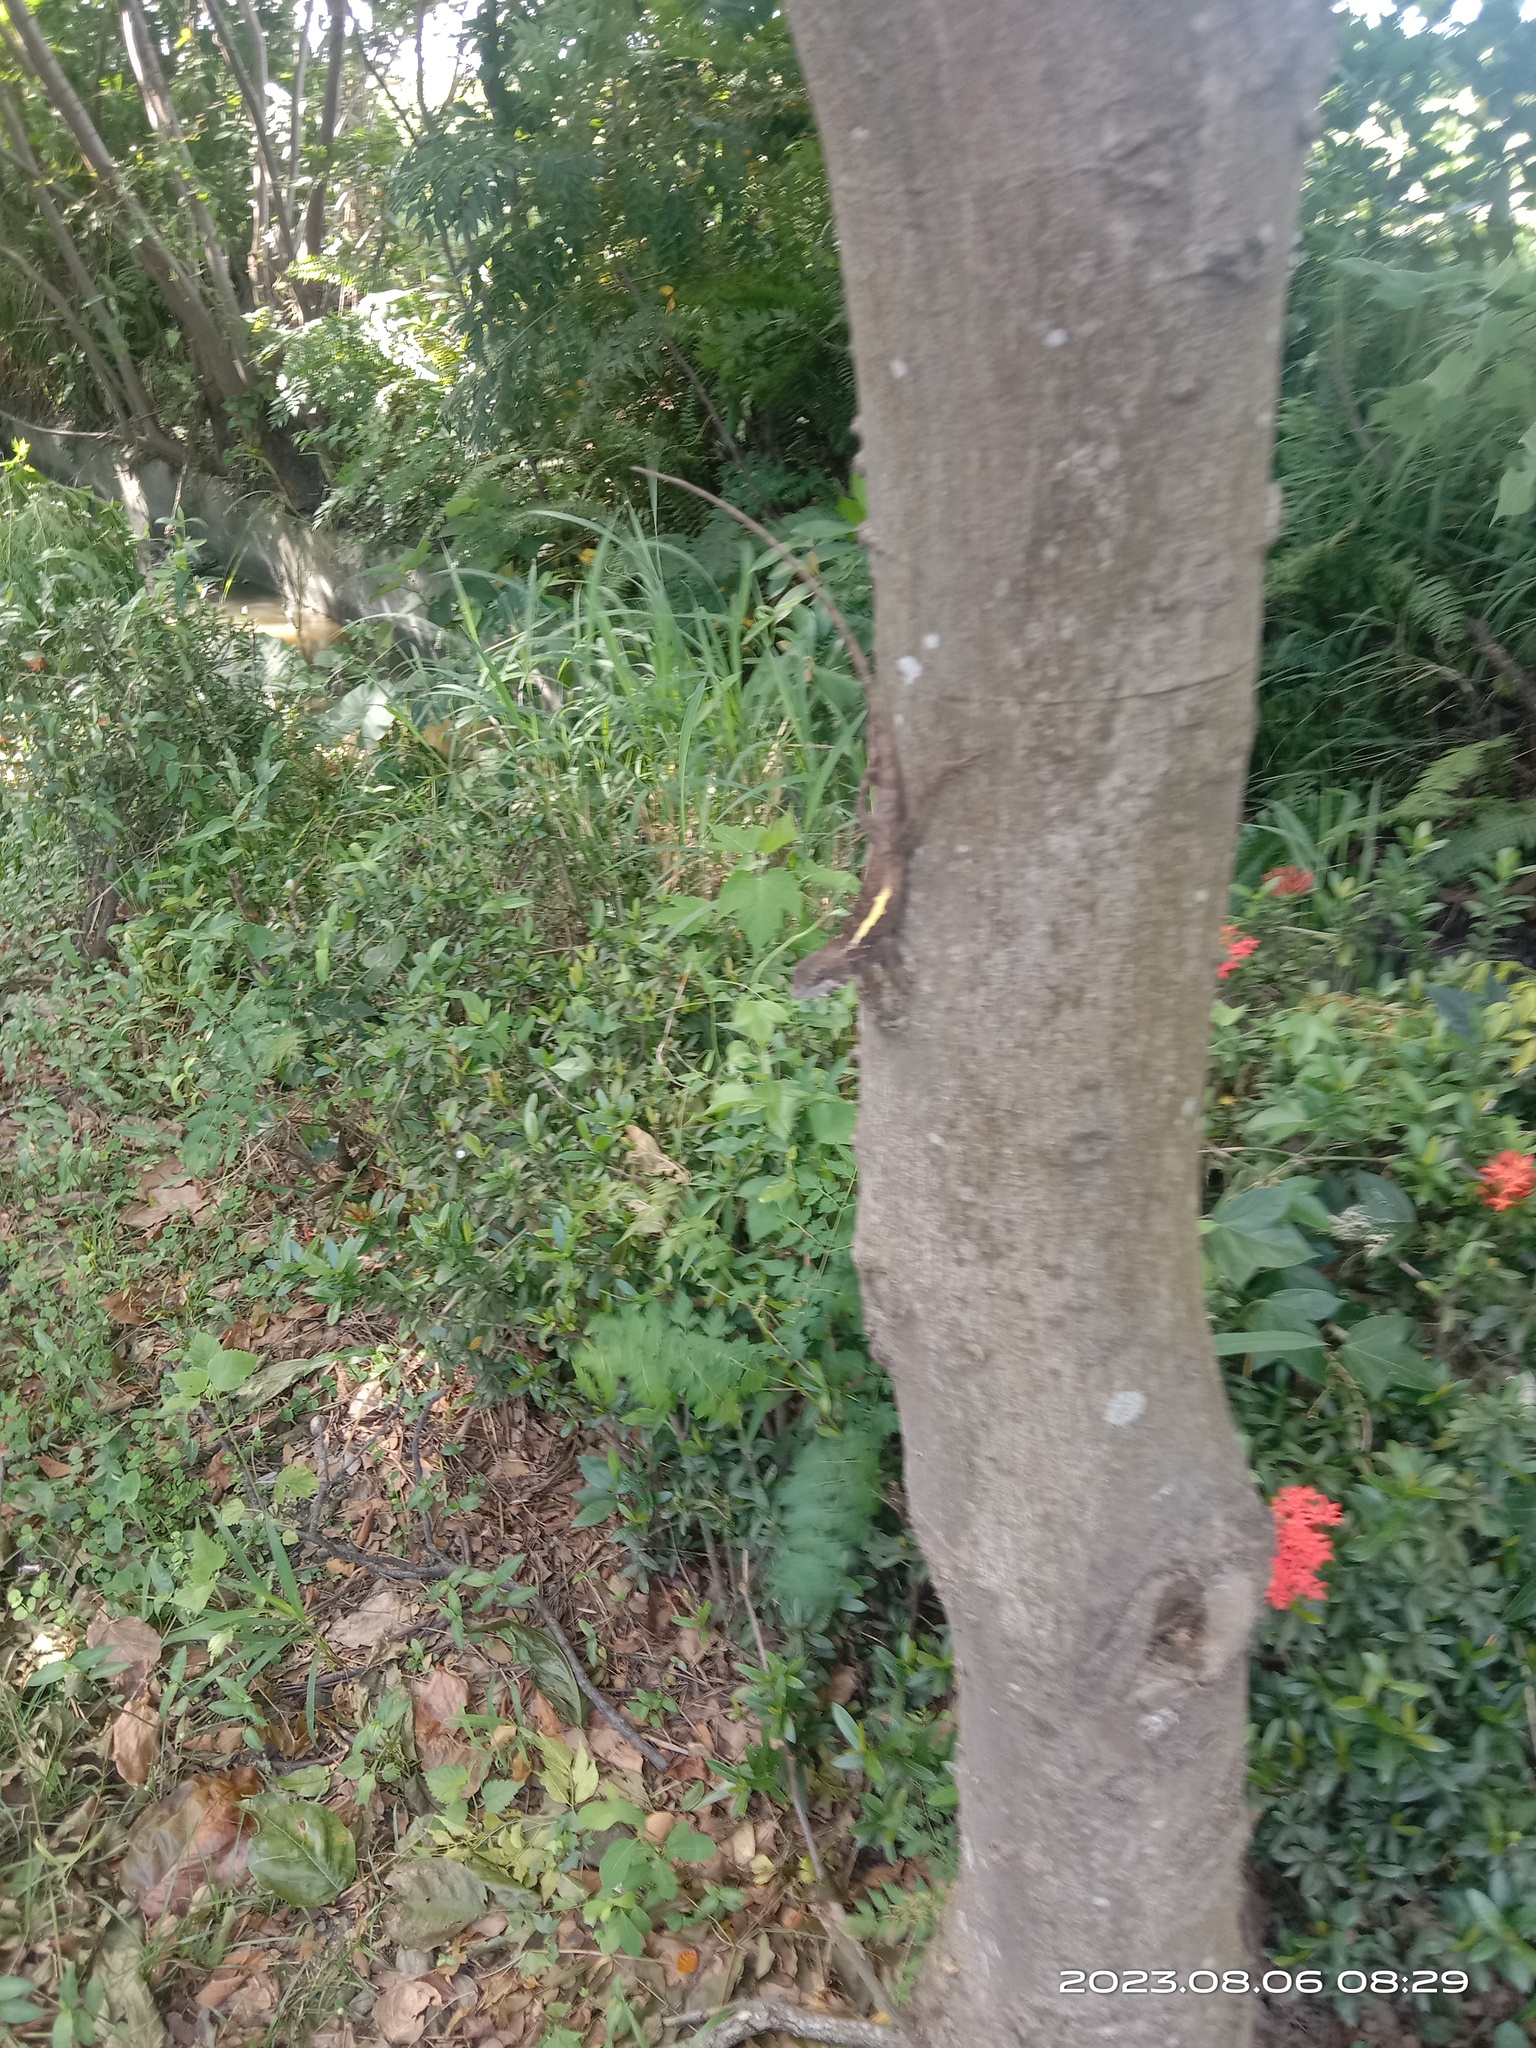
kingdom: Animalia
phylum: Chordata
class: Squamata
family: Agamidae
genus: Diploderma
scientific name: Diploderma swinhonis
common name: Taiwan japalure
